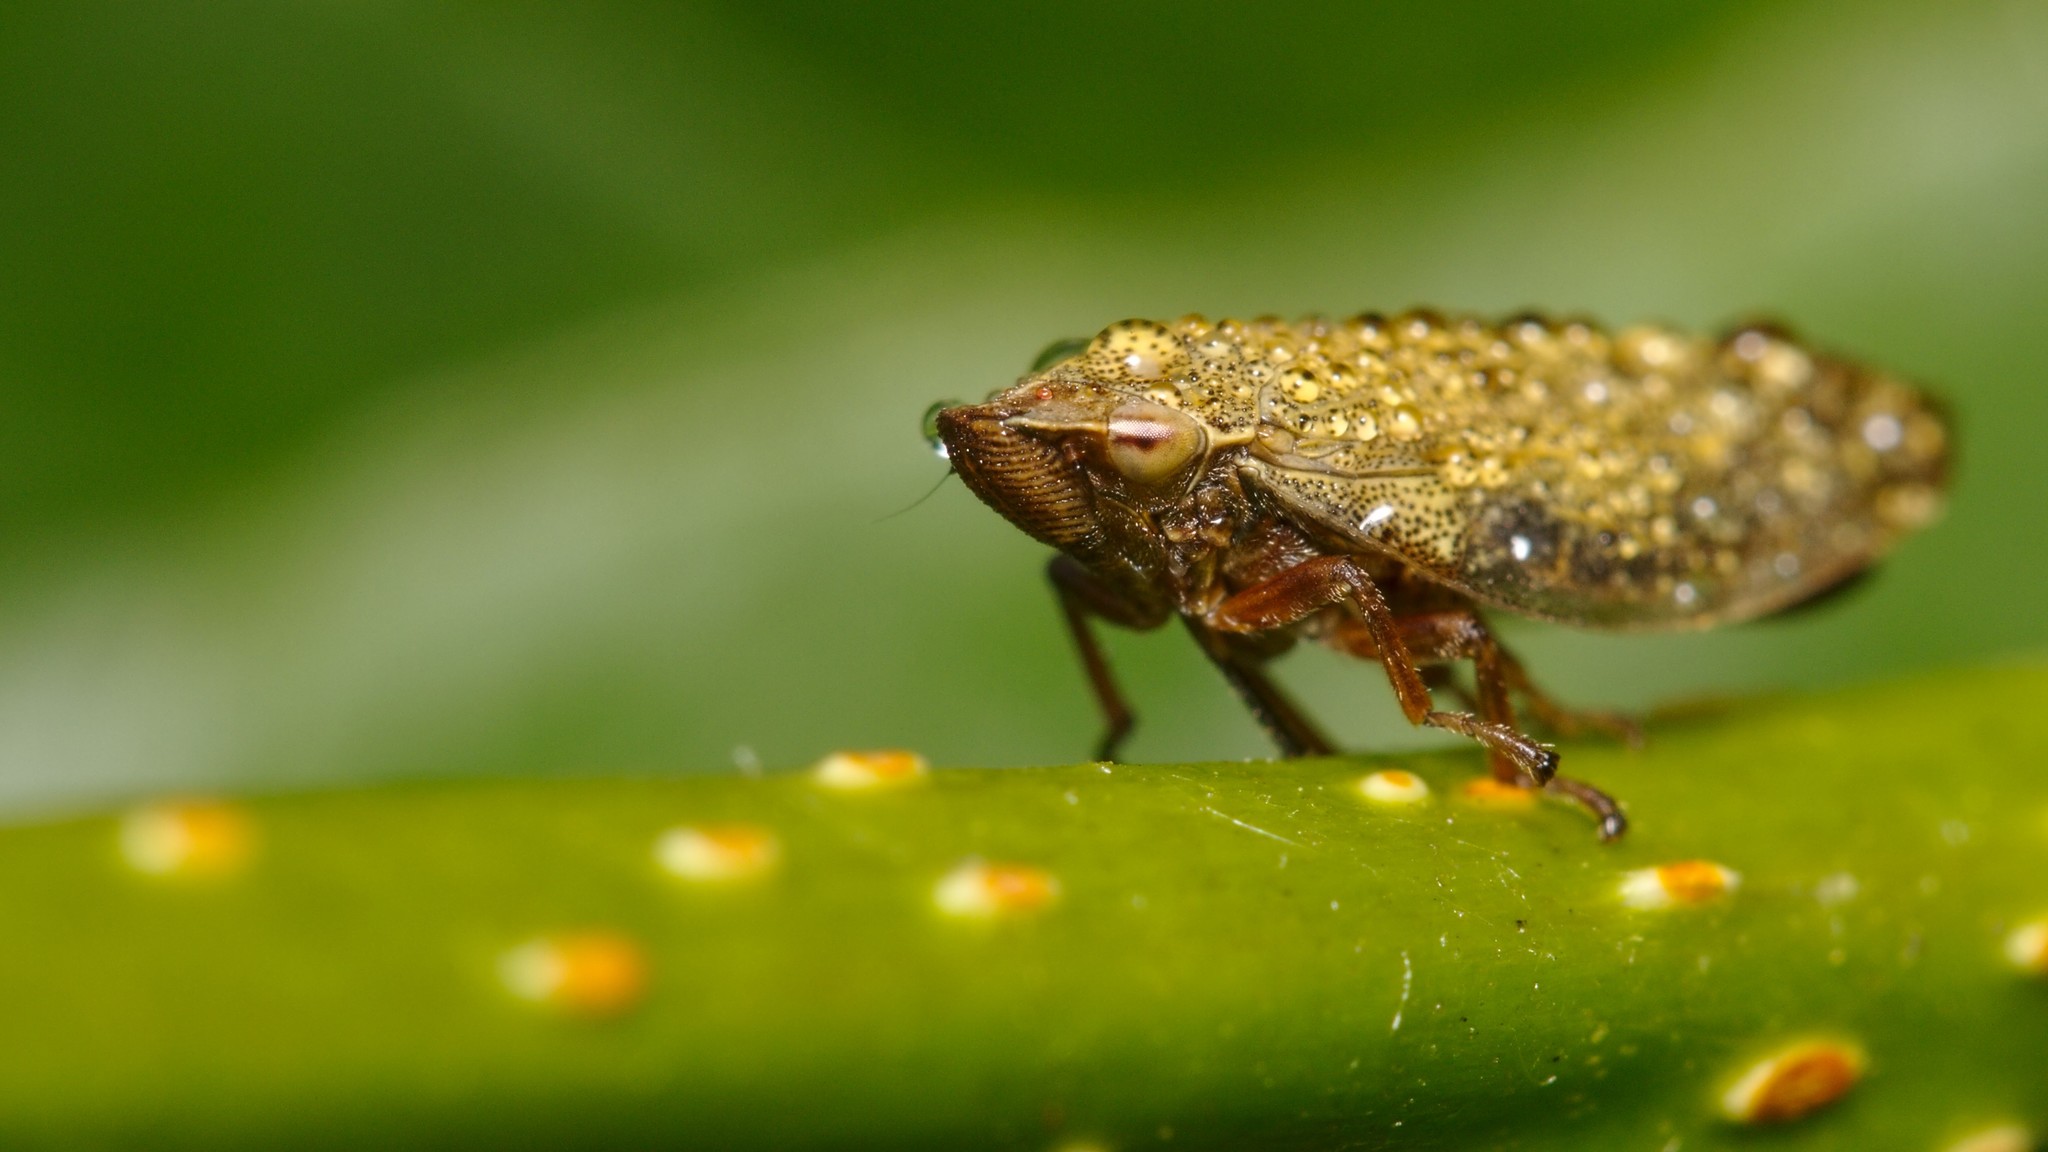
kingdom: Animalia
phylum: Arthropoda
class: Insecta
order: Hemiptera
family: Aphrophoridae
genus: Aphrophora
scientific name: Aphrophora salicina
